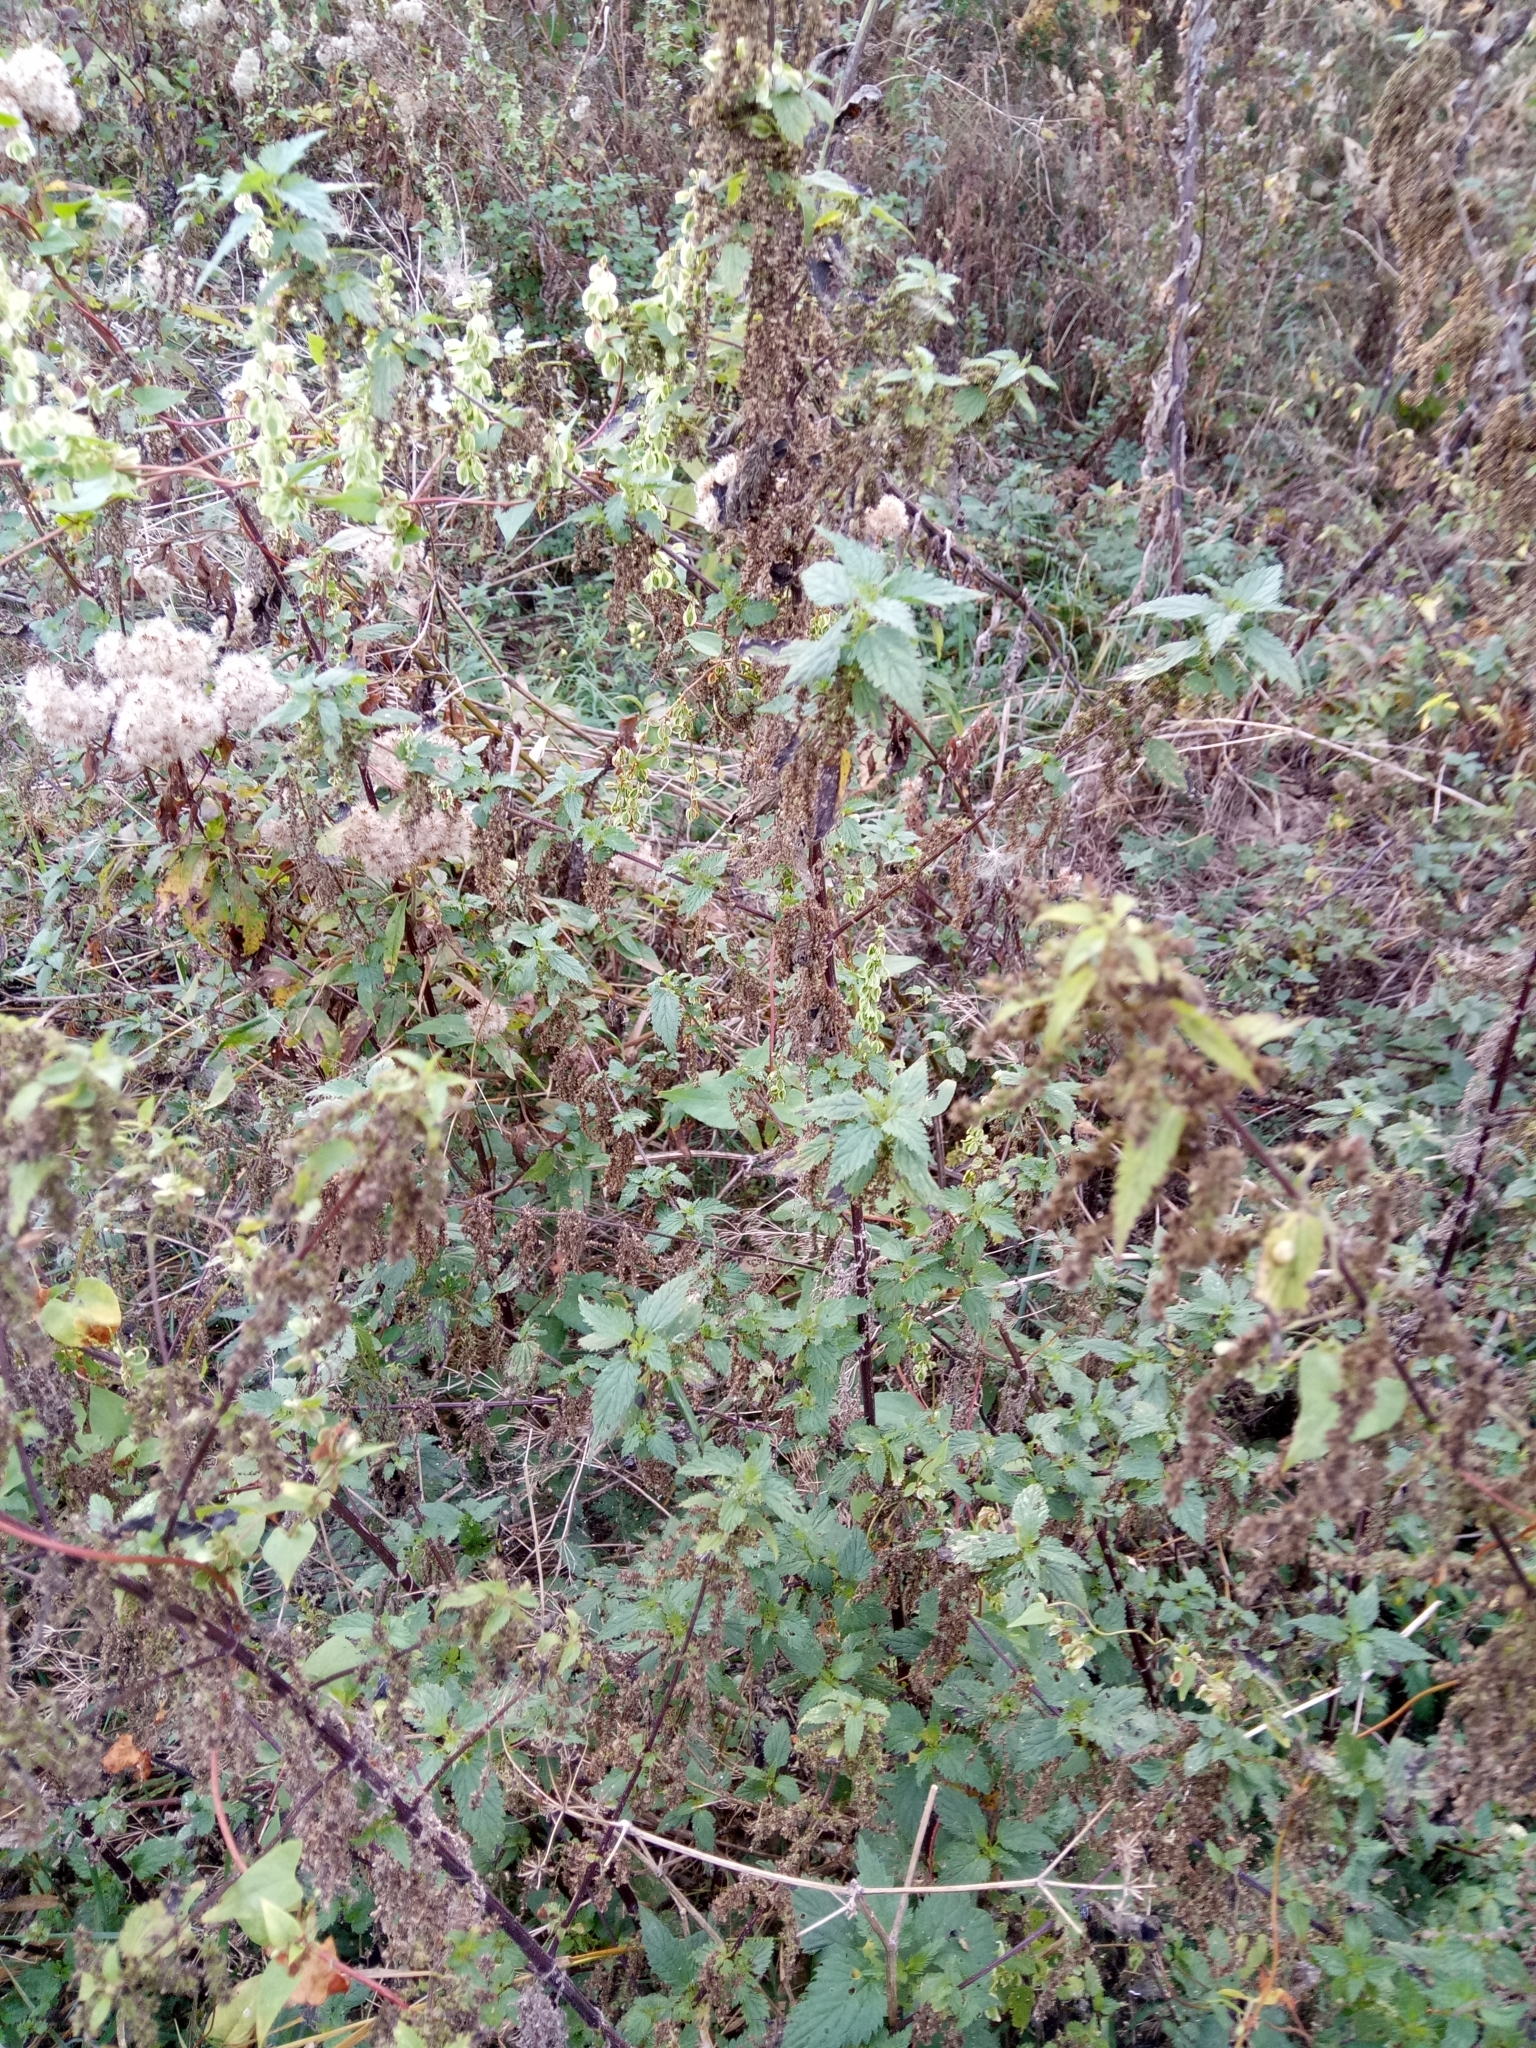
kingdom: Plantae
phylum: Tracheophyta
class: Magnoliopsida
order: Rosales
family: Urticaceae
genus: Urtica
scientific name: Urtica dioica
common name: Common nettle
